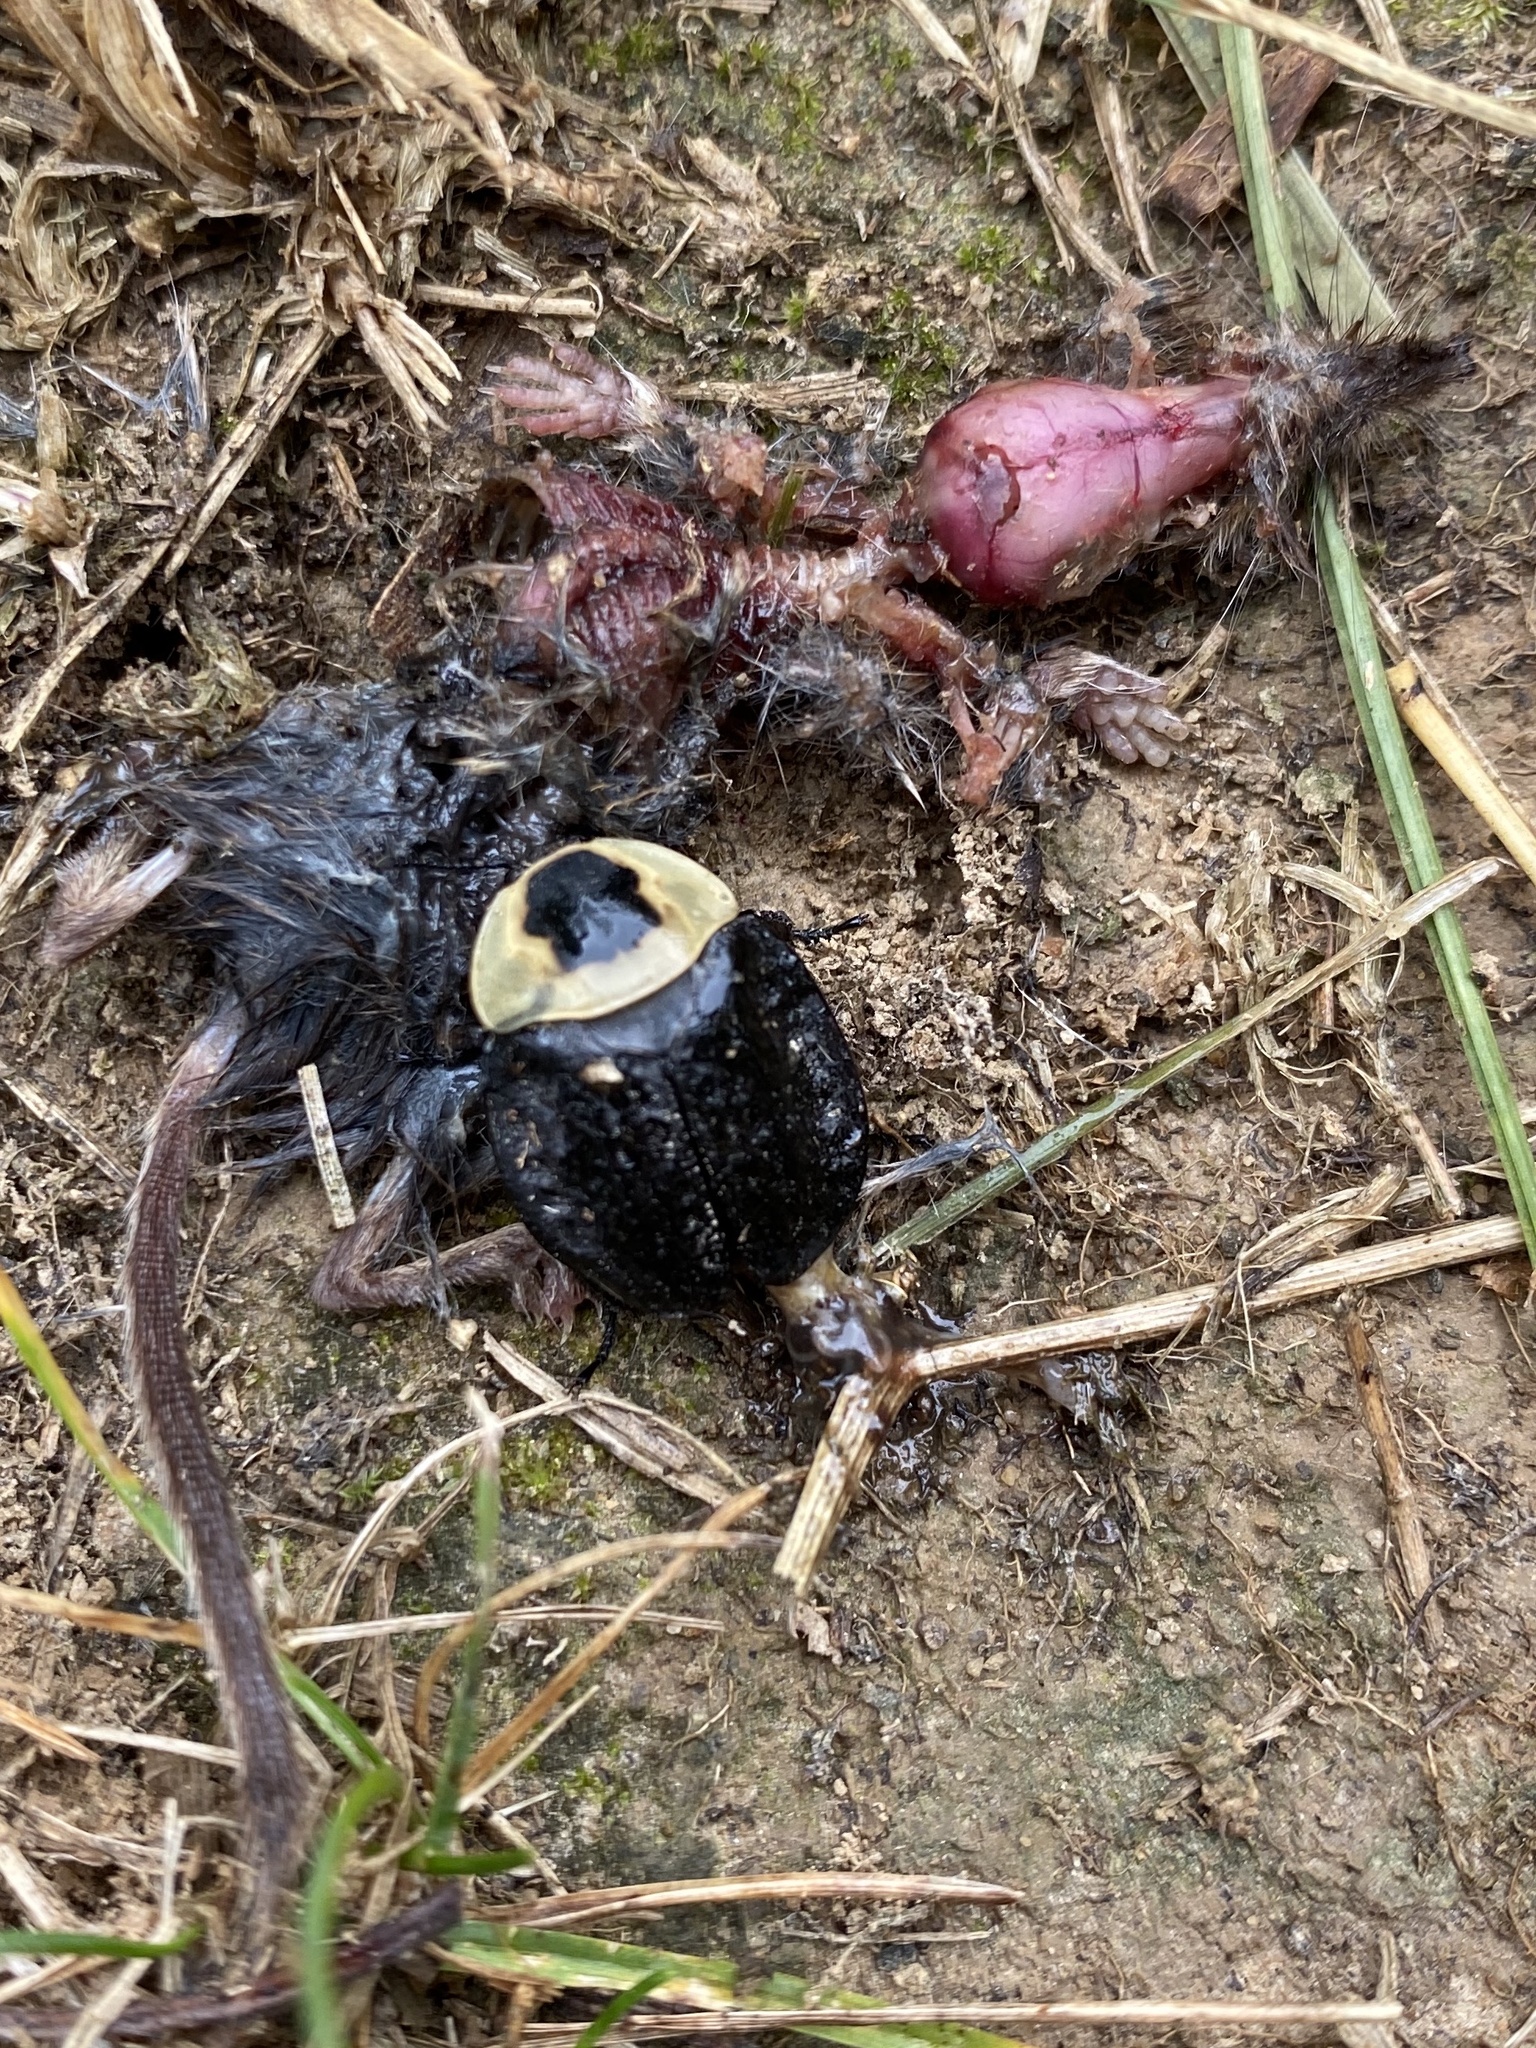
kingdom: Animalia
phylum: Arthropoda
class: Insecta
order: Coleoptera
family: Staphylinidae
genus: Necrophila
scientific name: Necrophila americana
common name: American carrion beetle
